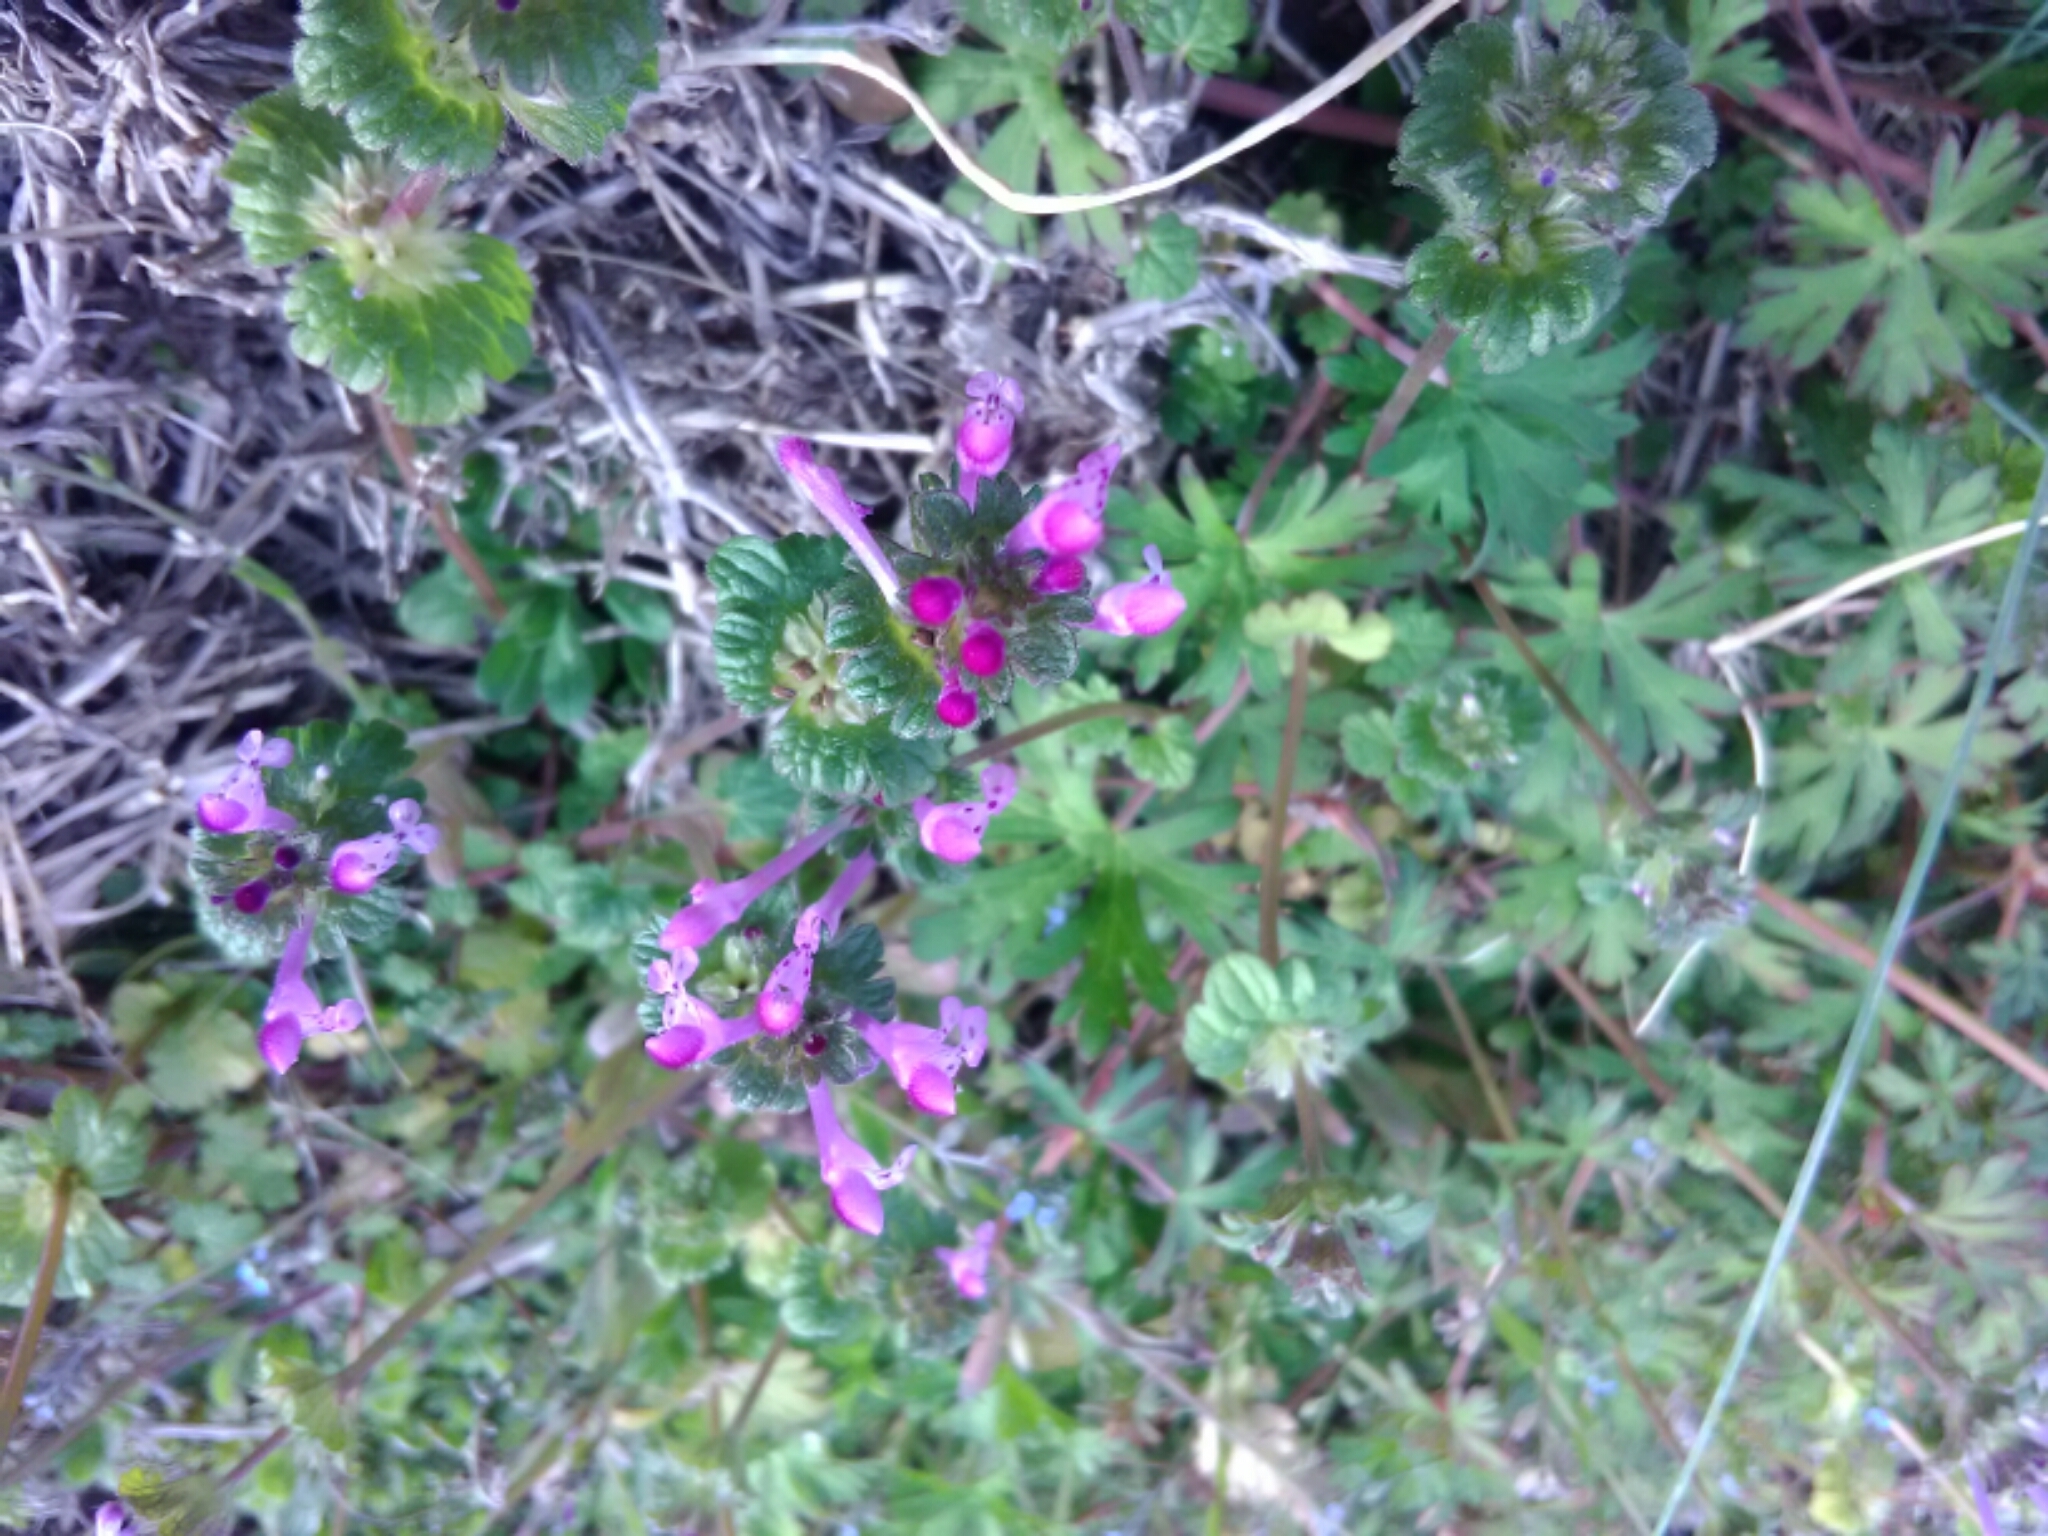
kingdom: Plantae
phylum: Tracheophyta
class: Magnoliopsida
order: Lamiales
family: Lamiaceae
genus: Lamium
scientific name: Lamium amplexicaule
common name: Henbit dead-nettle
